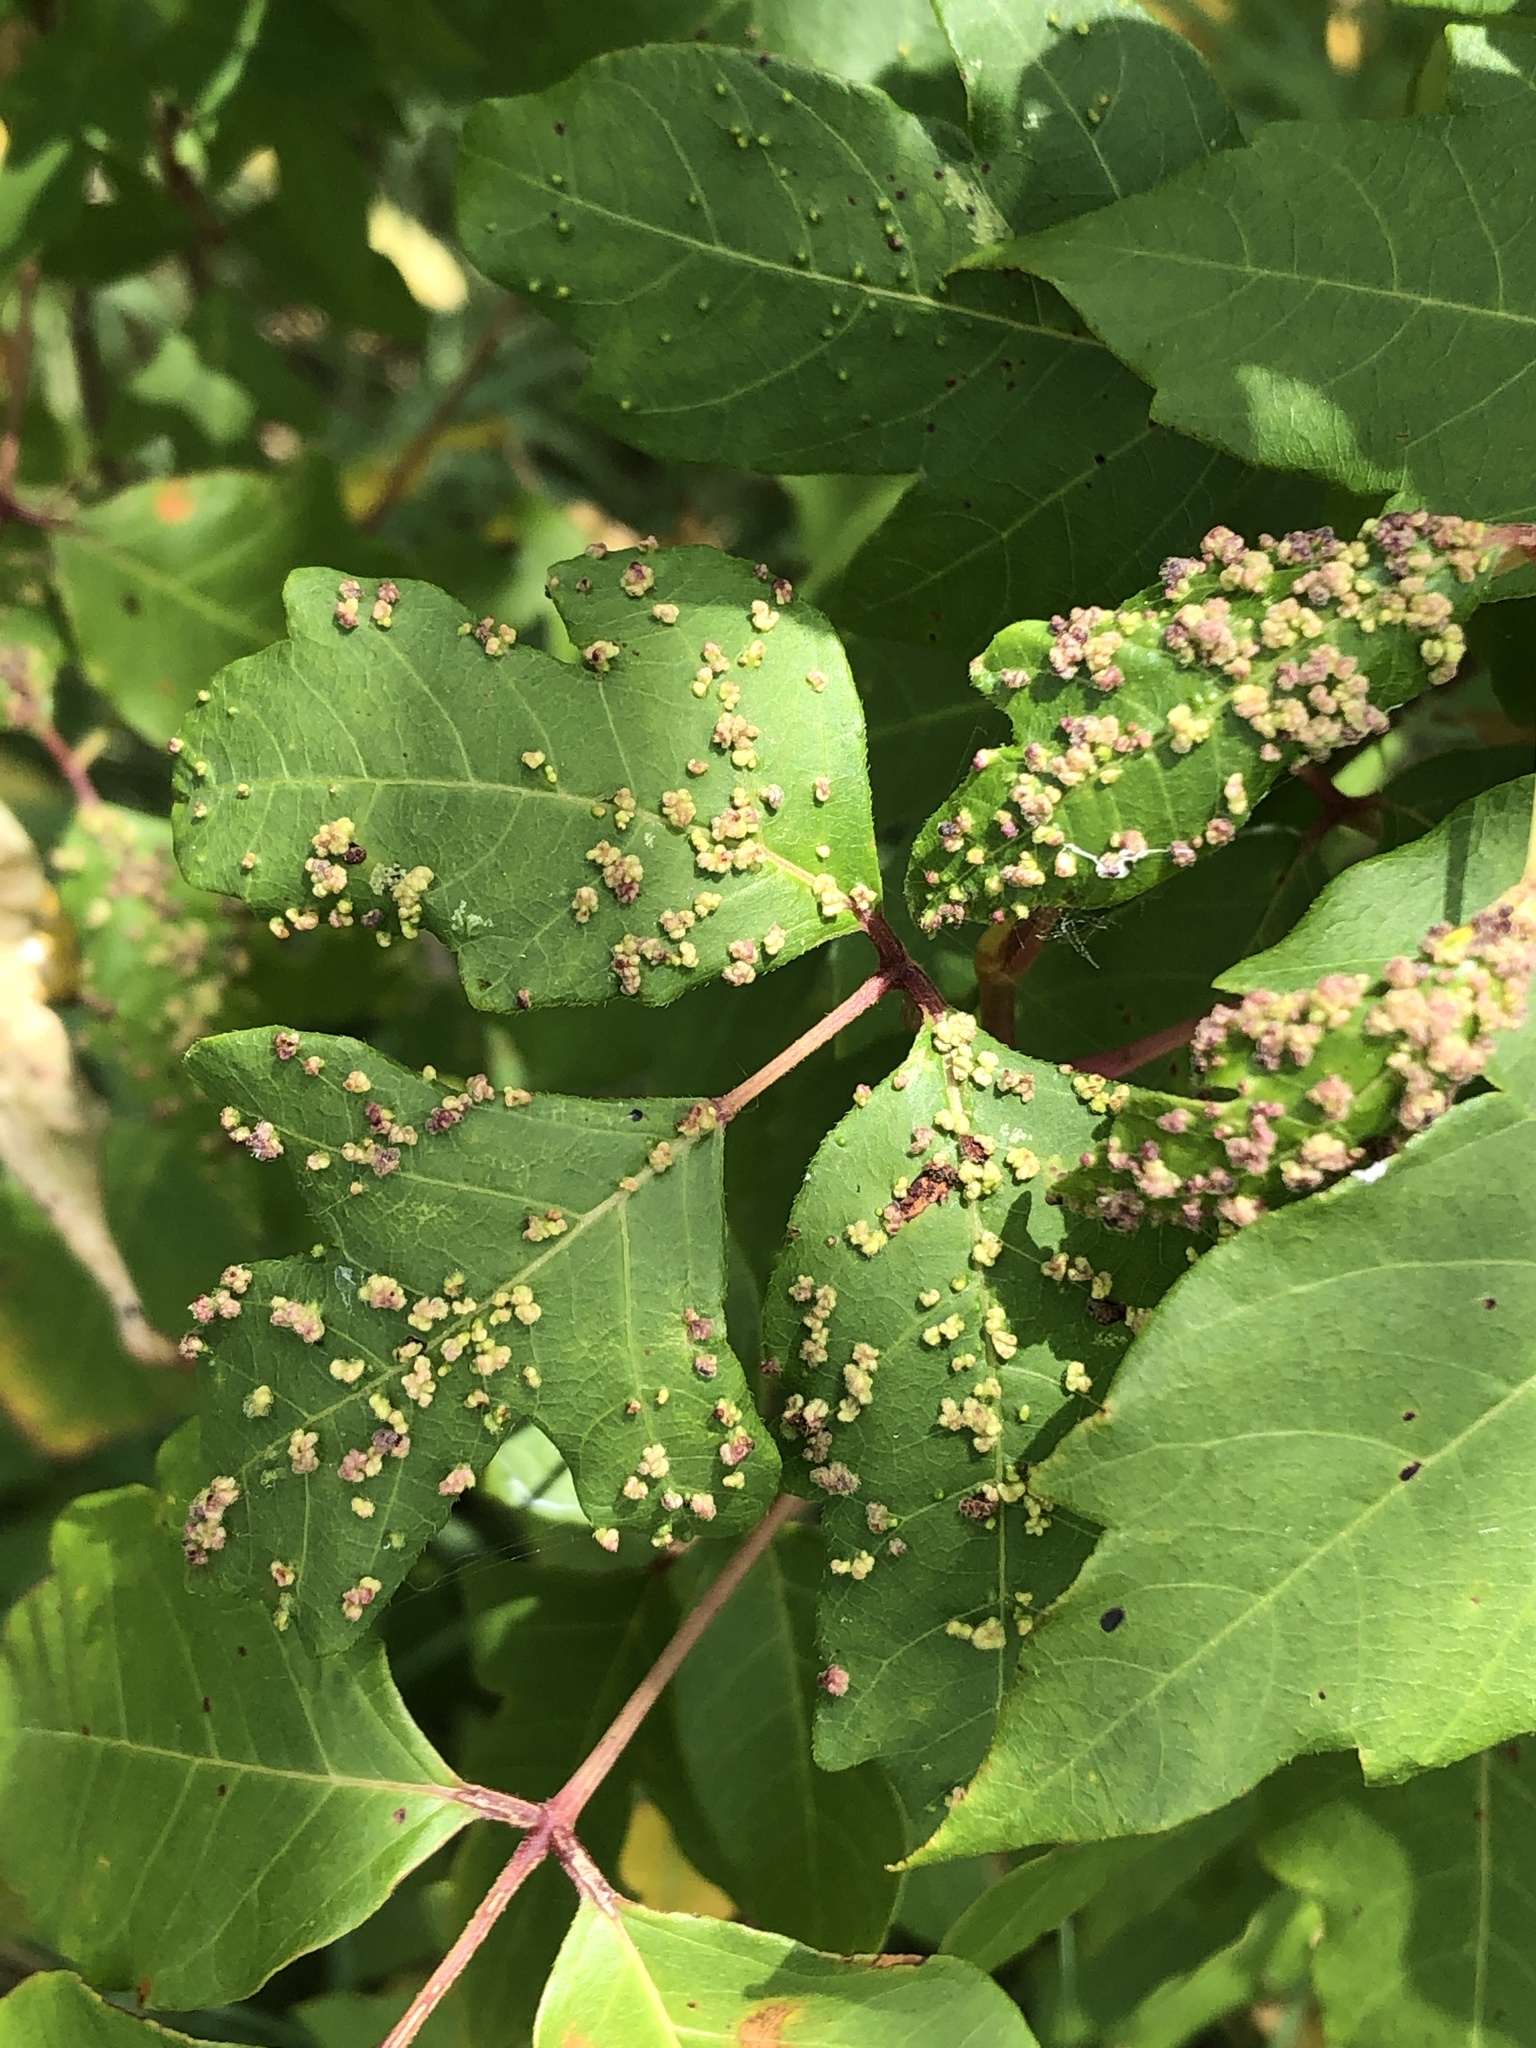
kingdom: Animalia
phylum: Arthropoda
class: Arachnida
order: Trombidiformes
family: Eriophyidae
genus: Aculops
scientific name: Aculops
